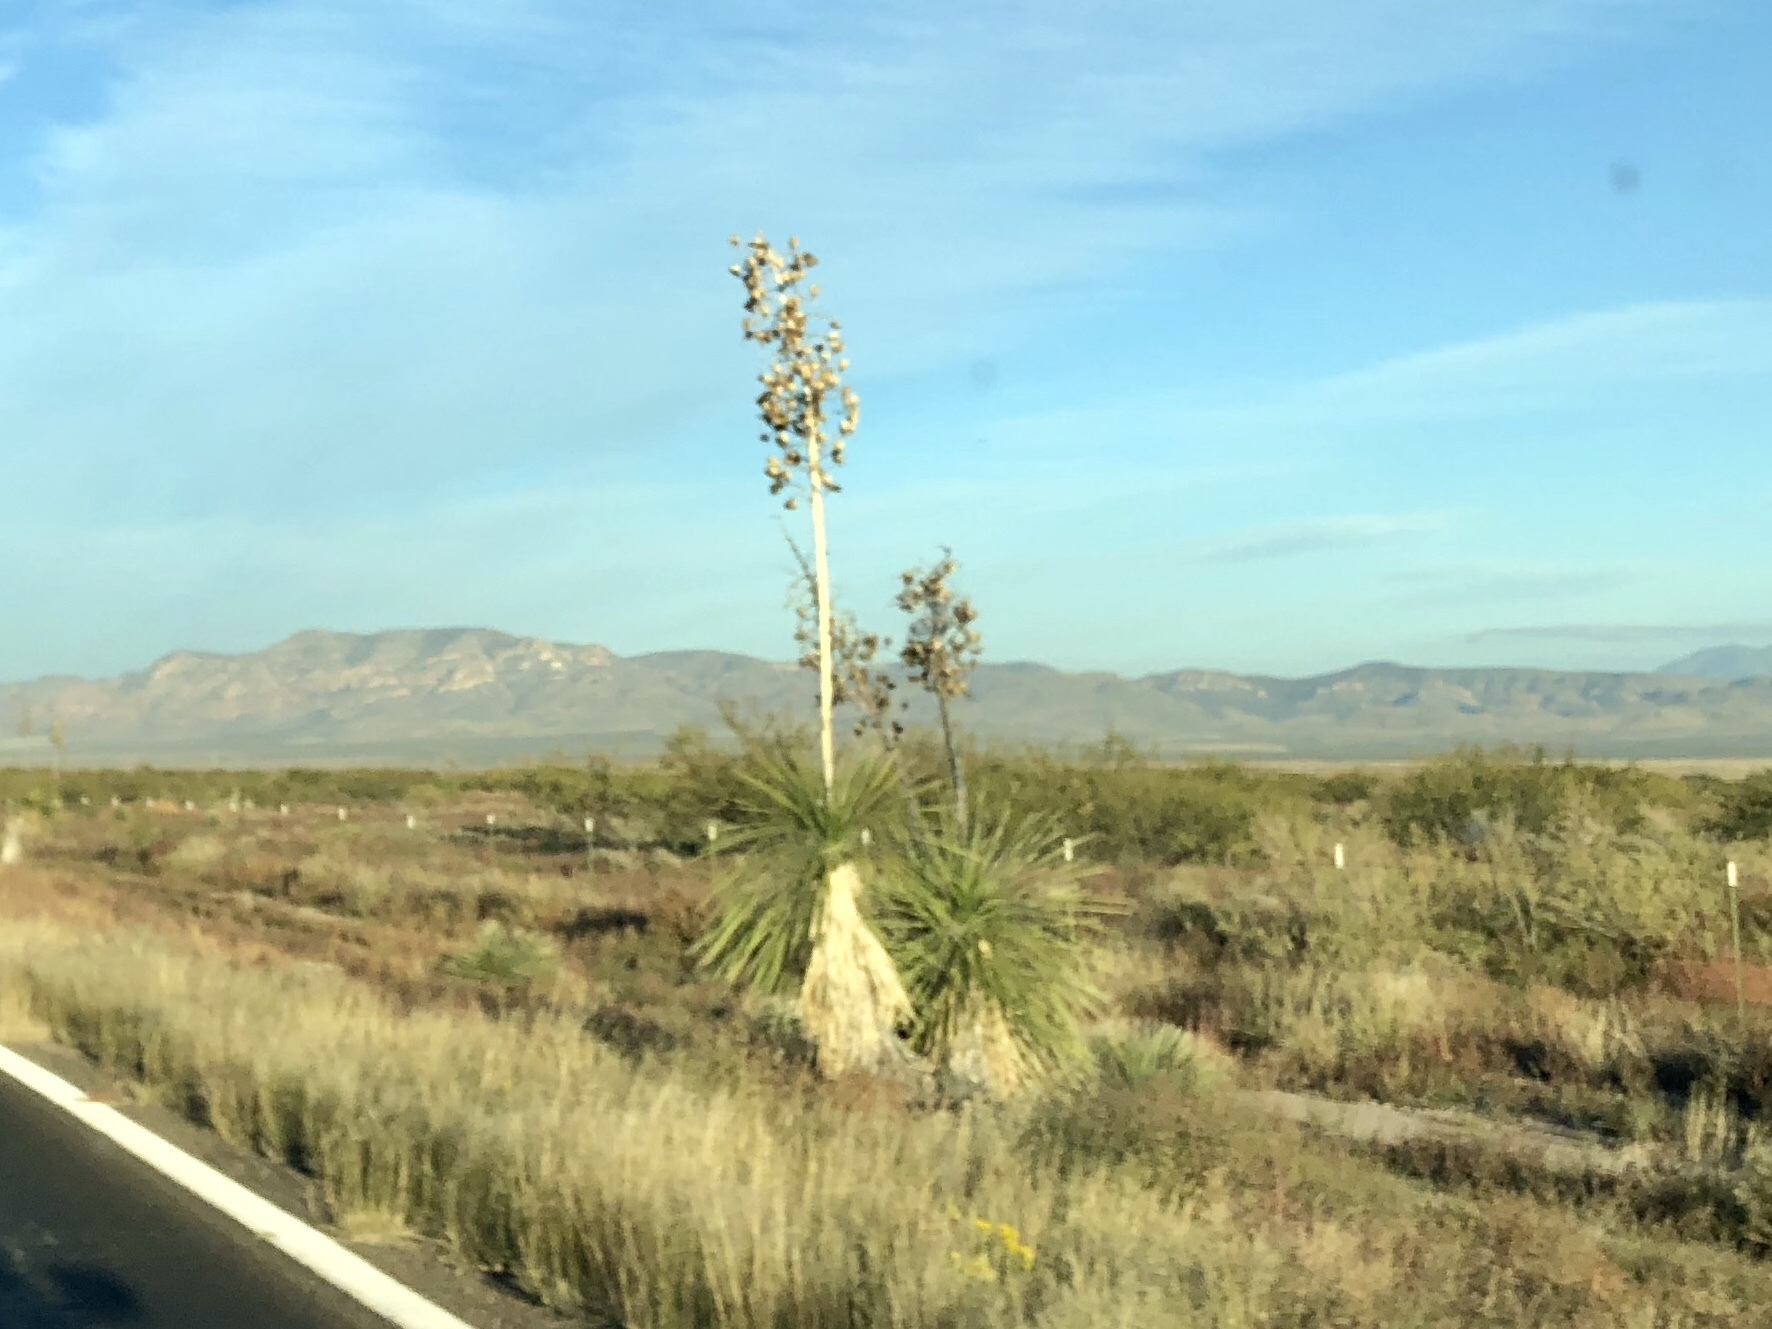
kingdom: Plantae
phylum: Tracheophyta
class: Liliopsida
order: Asparagales
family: Asparagaceae
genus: Yucca
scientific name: Yucca elata
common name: Palmella
